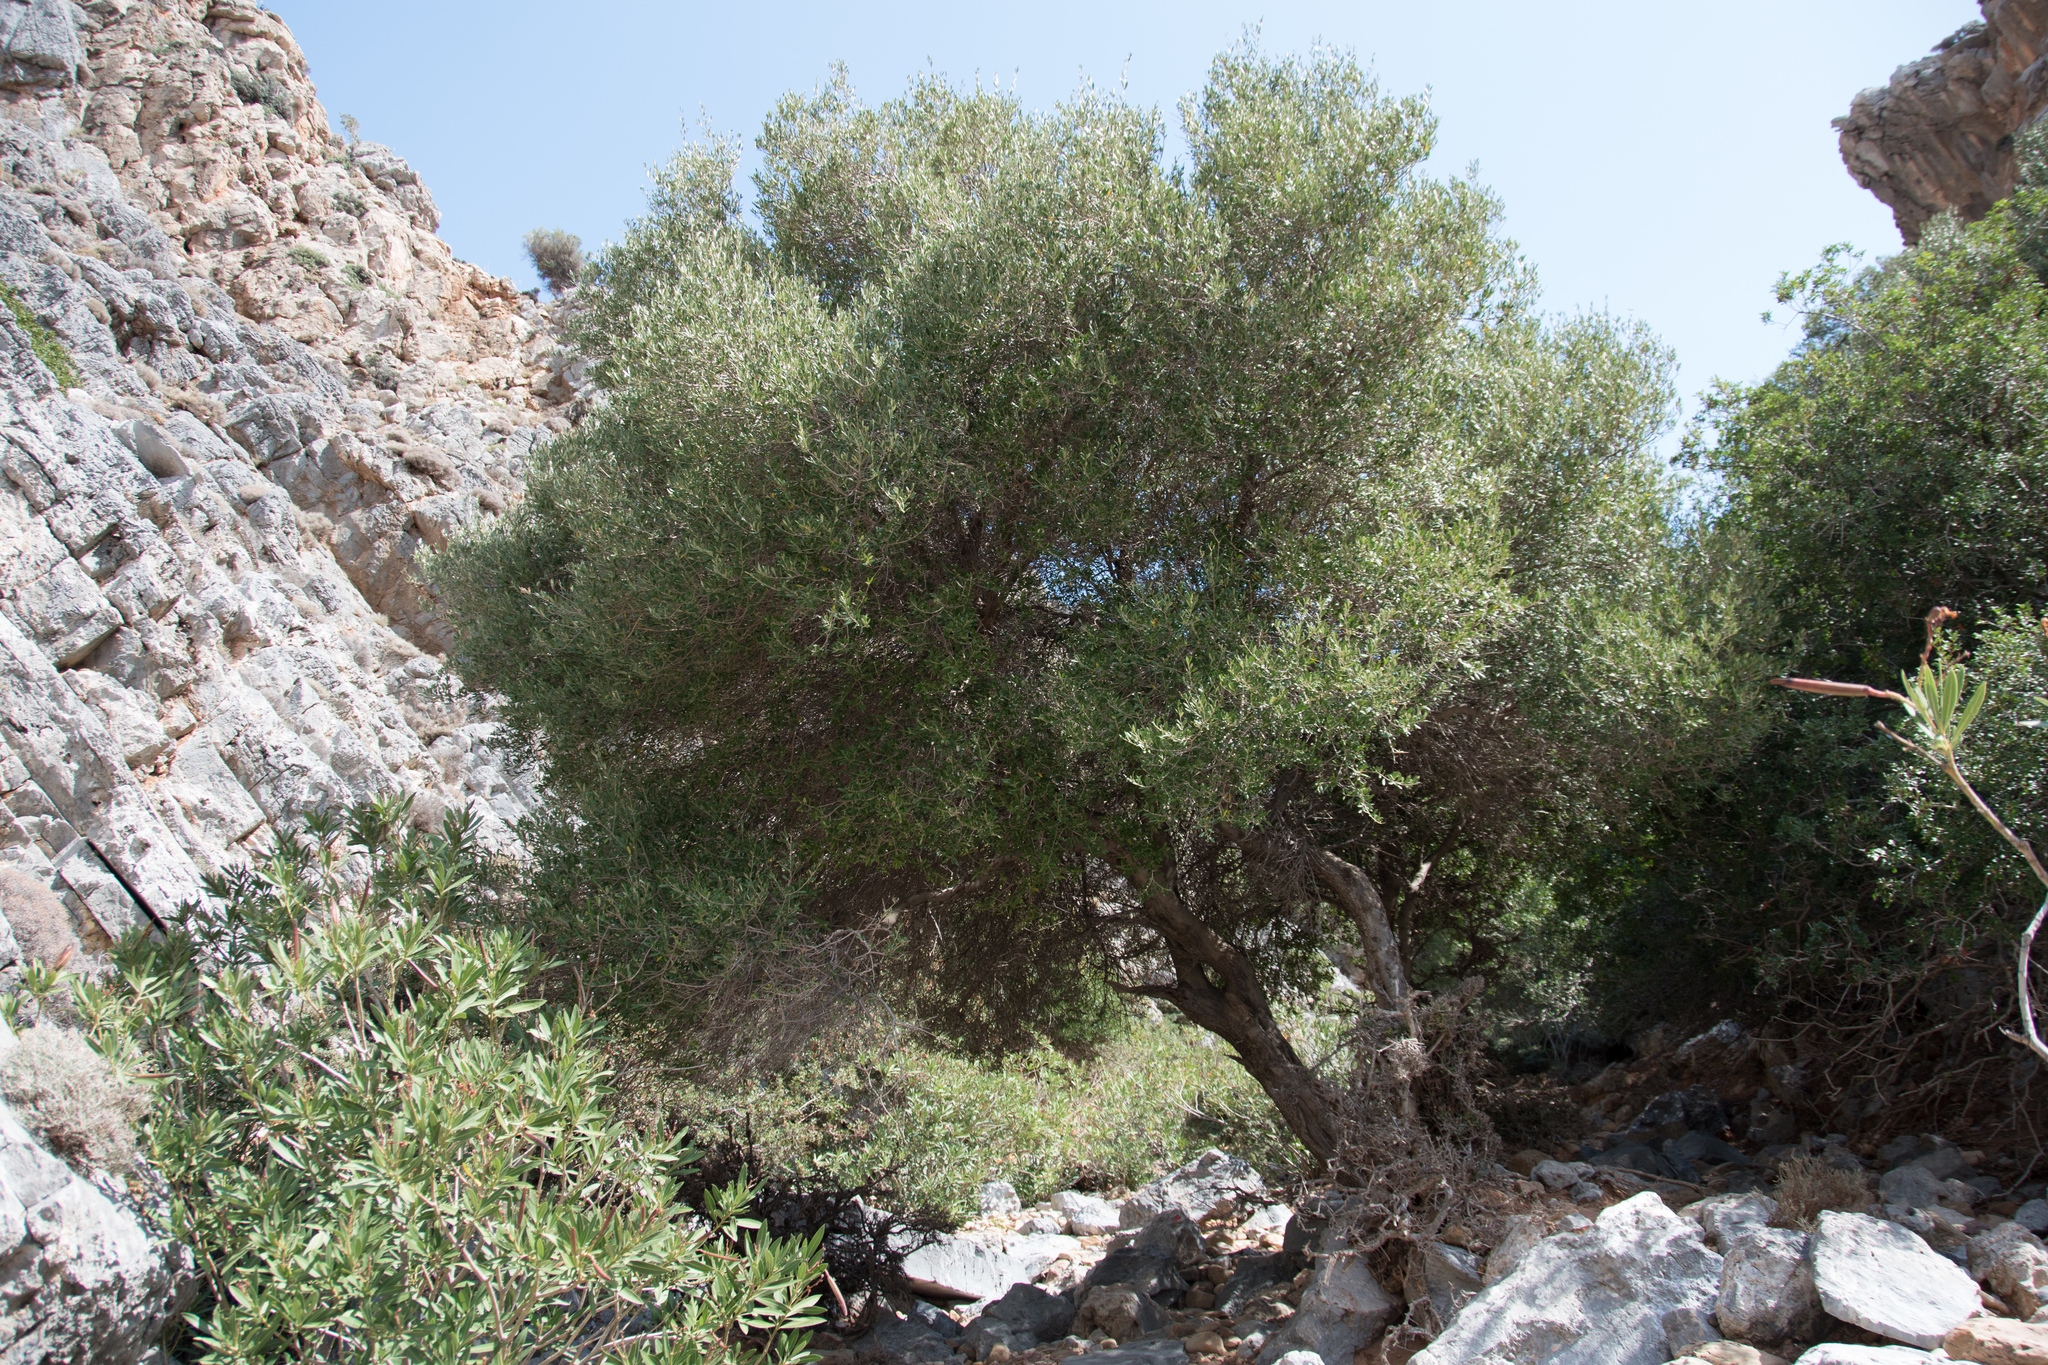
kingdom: Plantae
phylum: Tracheophyta
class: Magnoliopsida
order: Lamiales
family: Oleaceae
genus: Olea
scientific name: Olea europaea
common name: Olive
